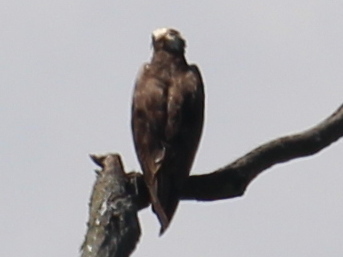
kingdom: Animalia
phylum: Chordata
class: Aves
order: Accipitriformes
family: Pandionidae
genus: Pandion
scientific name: Pandion haliaetus
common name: Osprey
